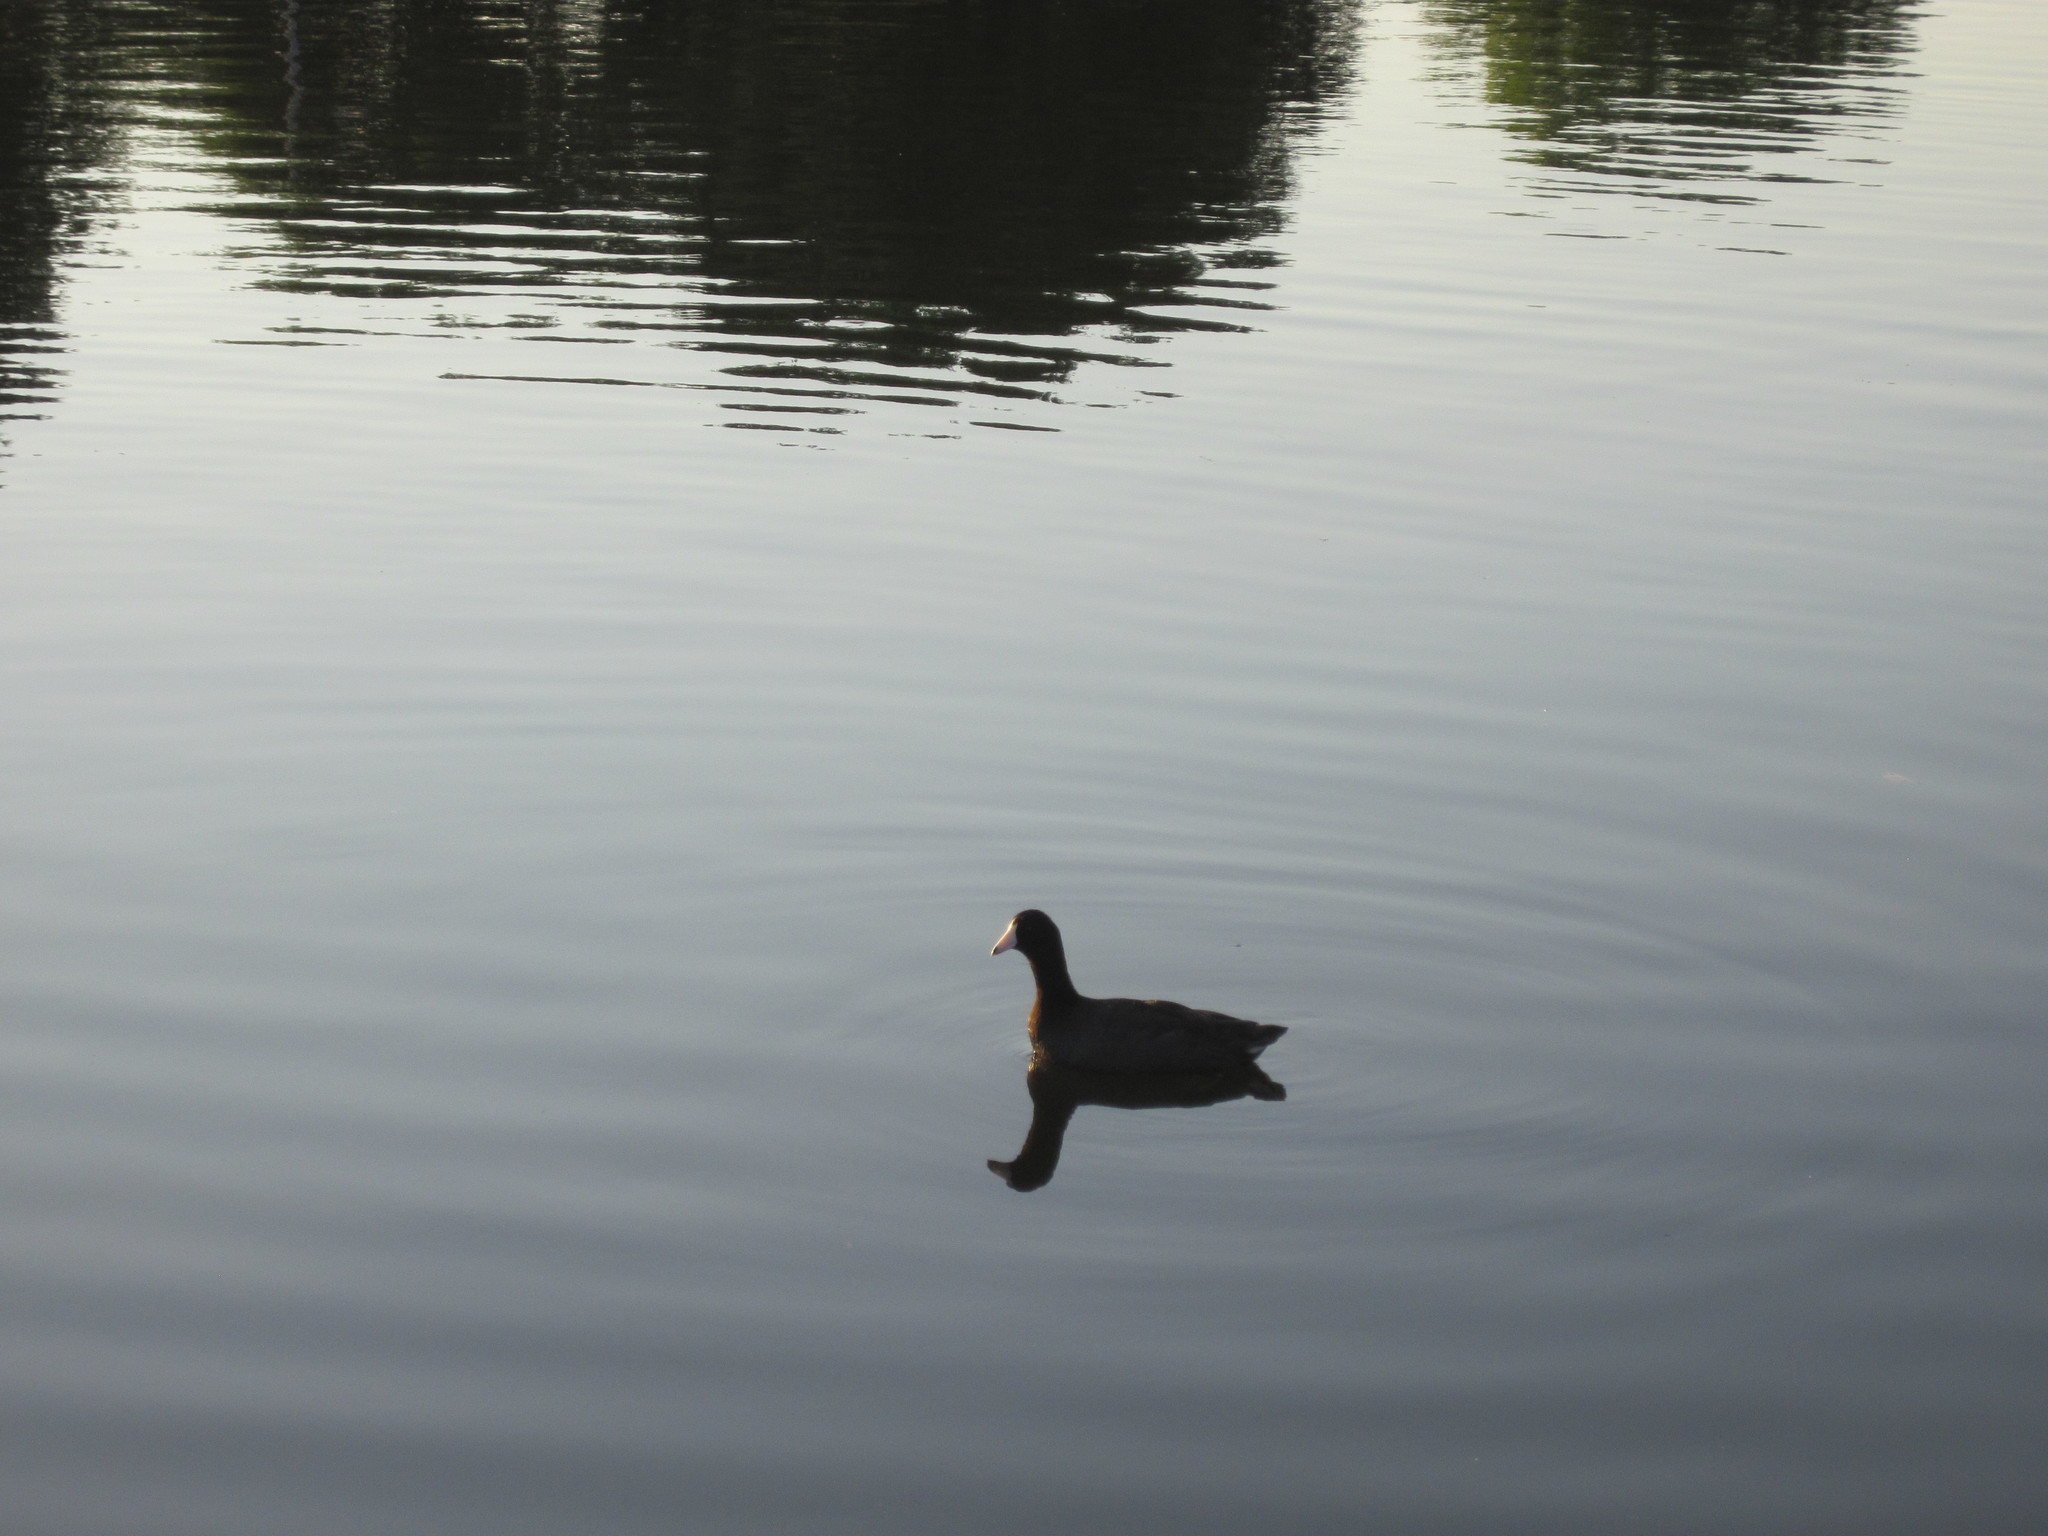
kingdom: Animalia
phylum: Chordata
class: Aves
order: Gruiformes
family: Rallidae
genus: Fulica
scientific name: Fulica americana
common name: American coot
